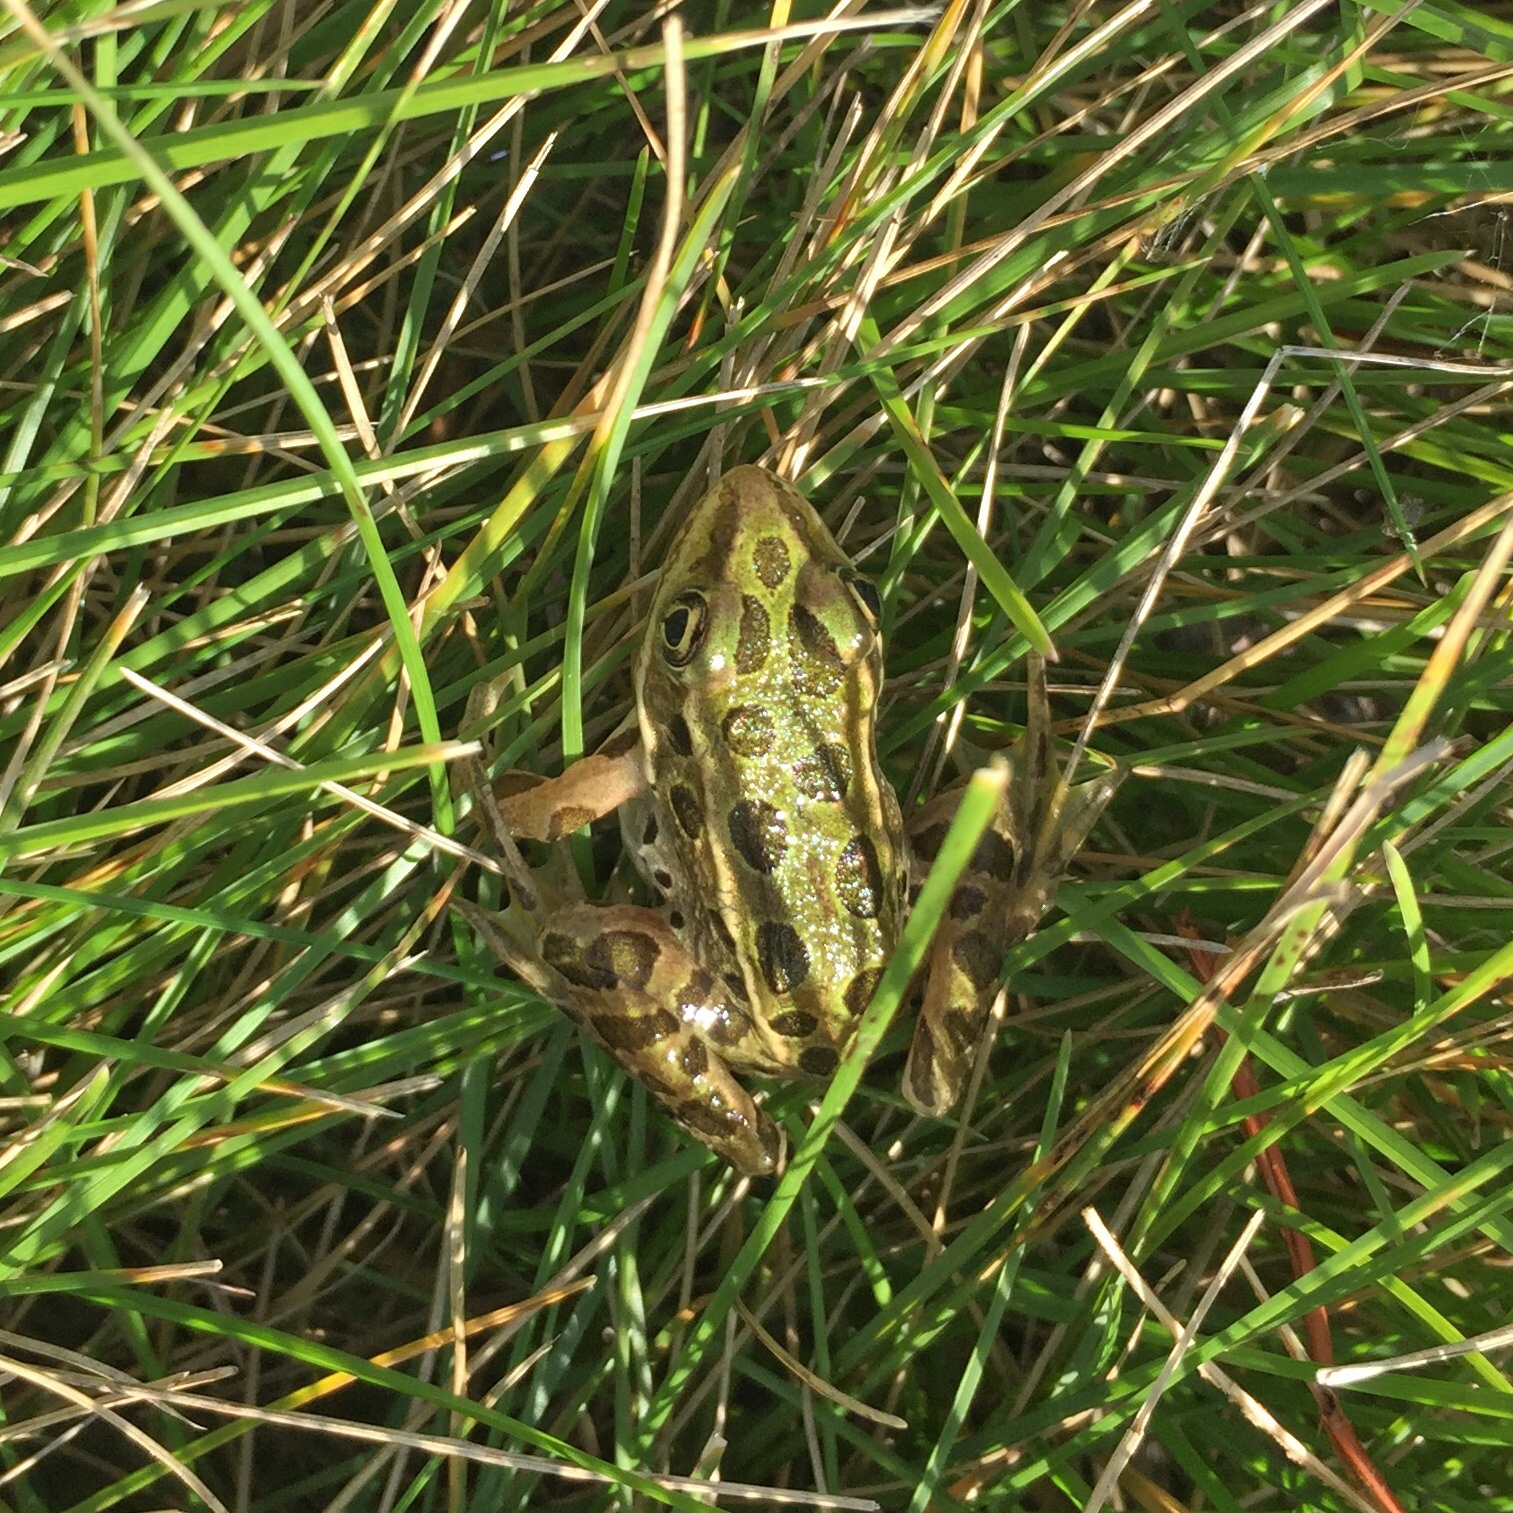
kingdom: Animalia
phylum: Chordata
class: Amphibia
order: Anura
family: Ranidae
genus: Lithobates
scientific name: Lithobates pipiens
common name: Northern leopard frog
